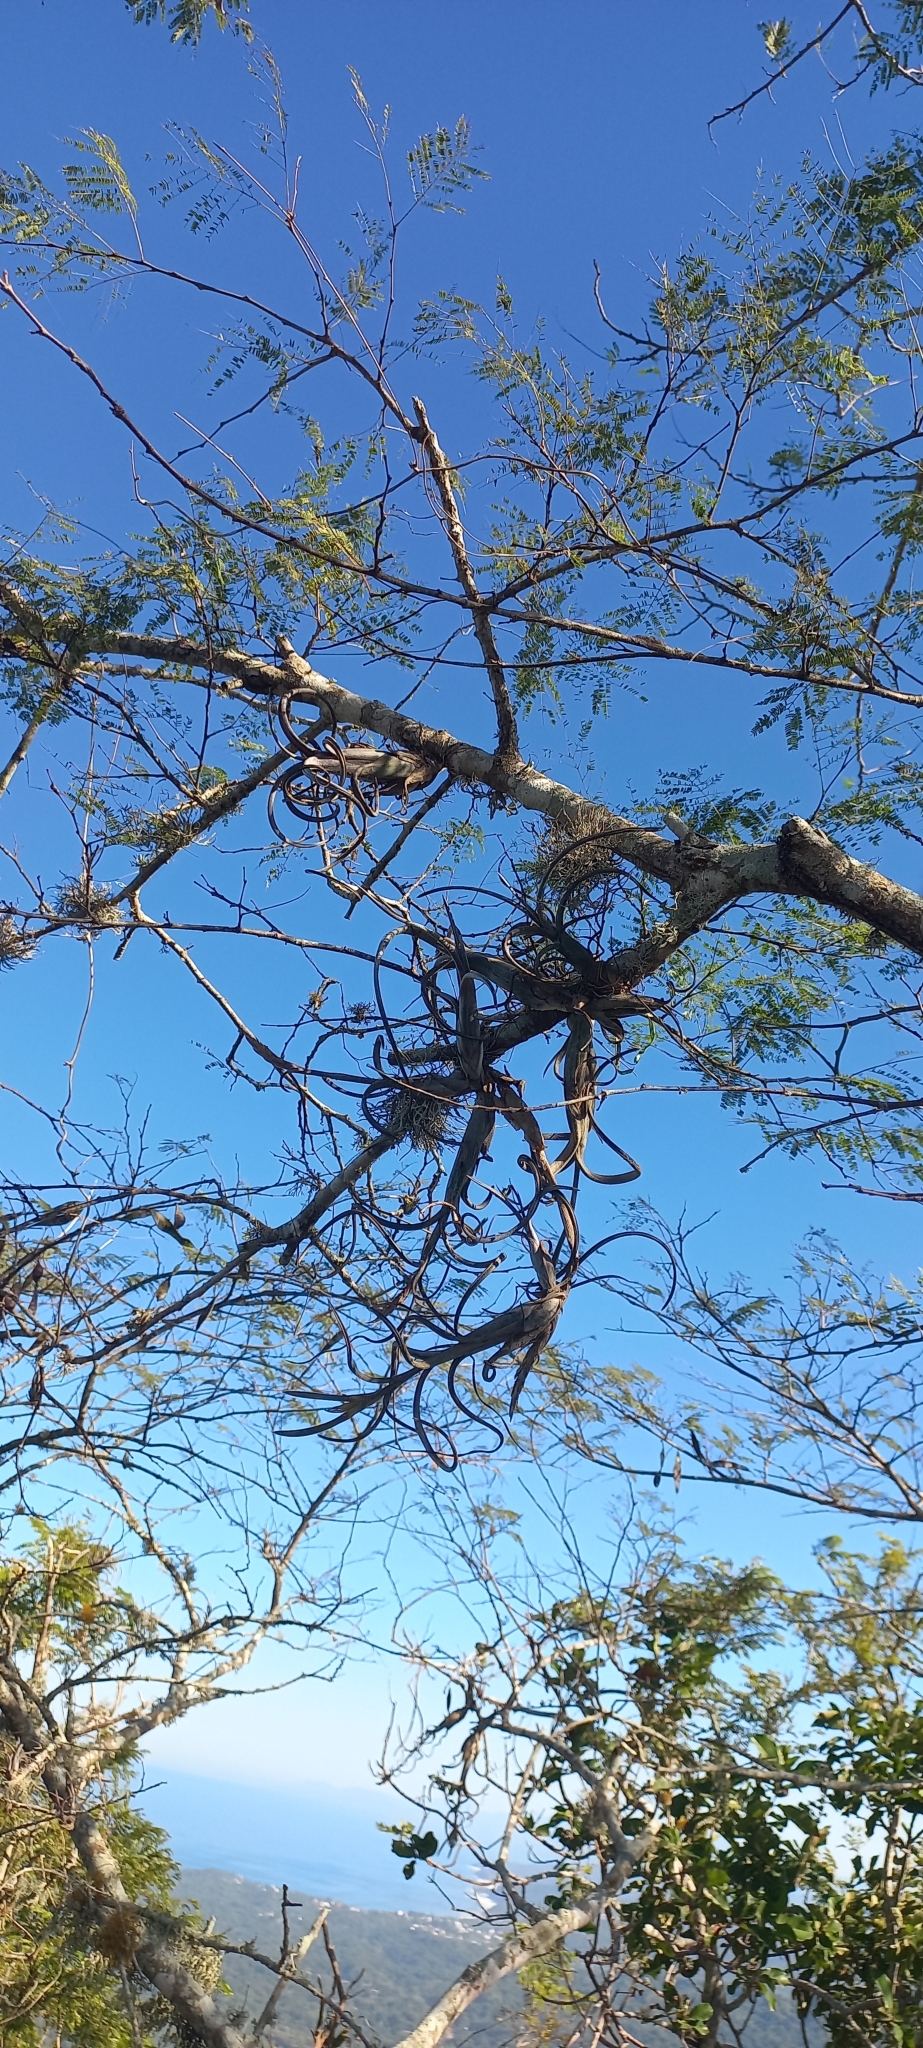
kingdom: Plantae
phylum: Tracheophyta
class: Liliopsida
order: Poales
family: Bromeliaceae
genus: Tillandsia
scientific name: Tillandsia intermedia
